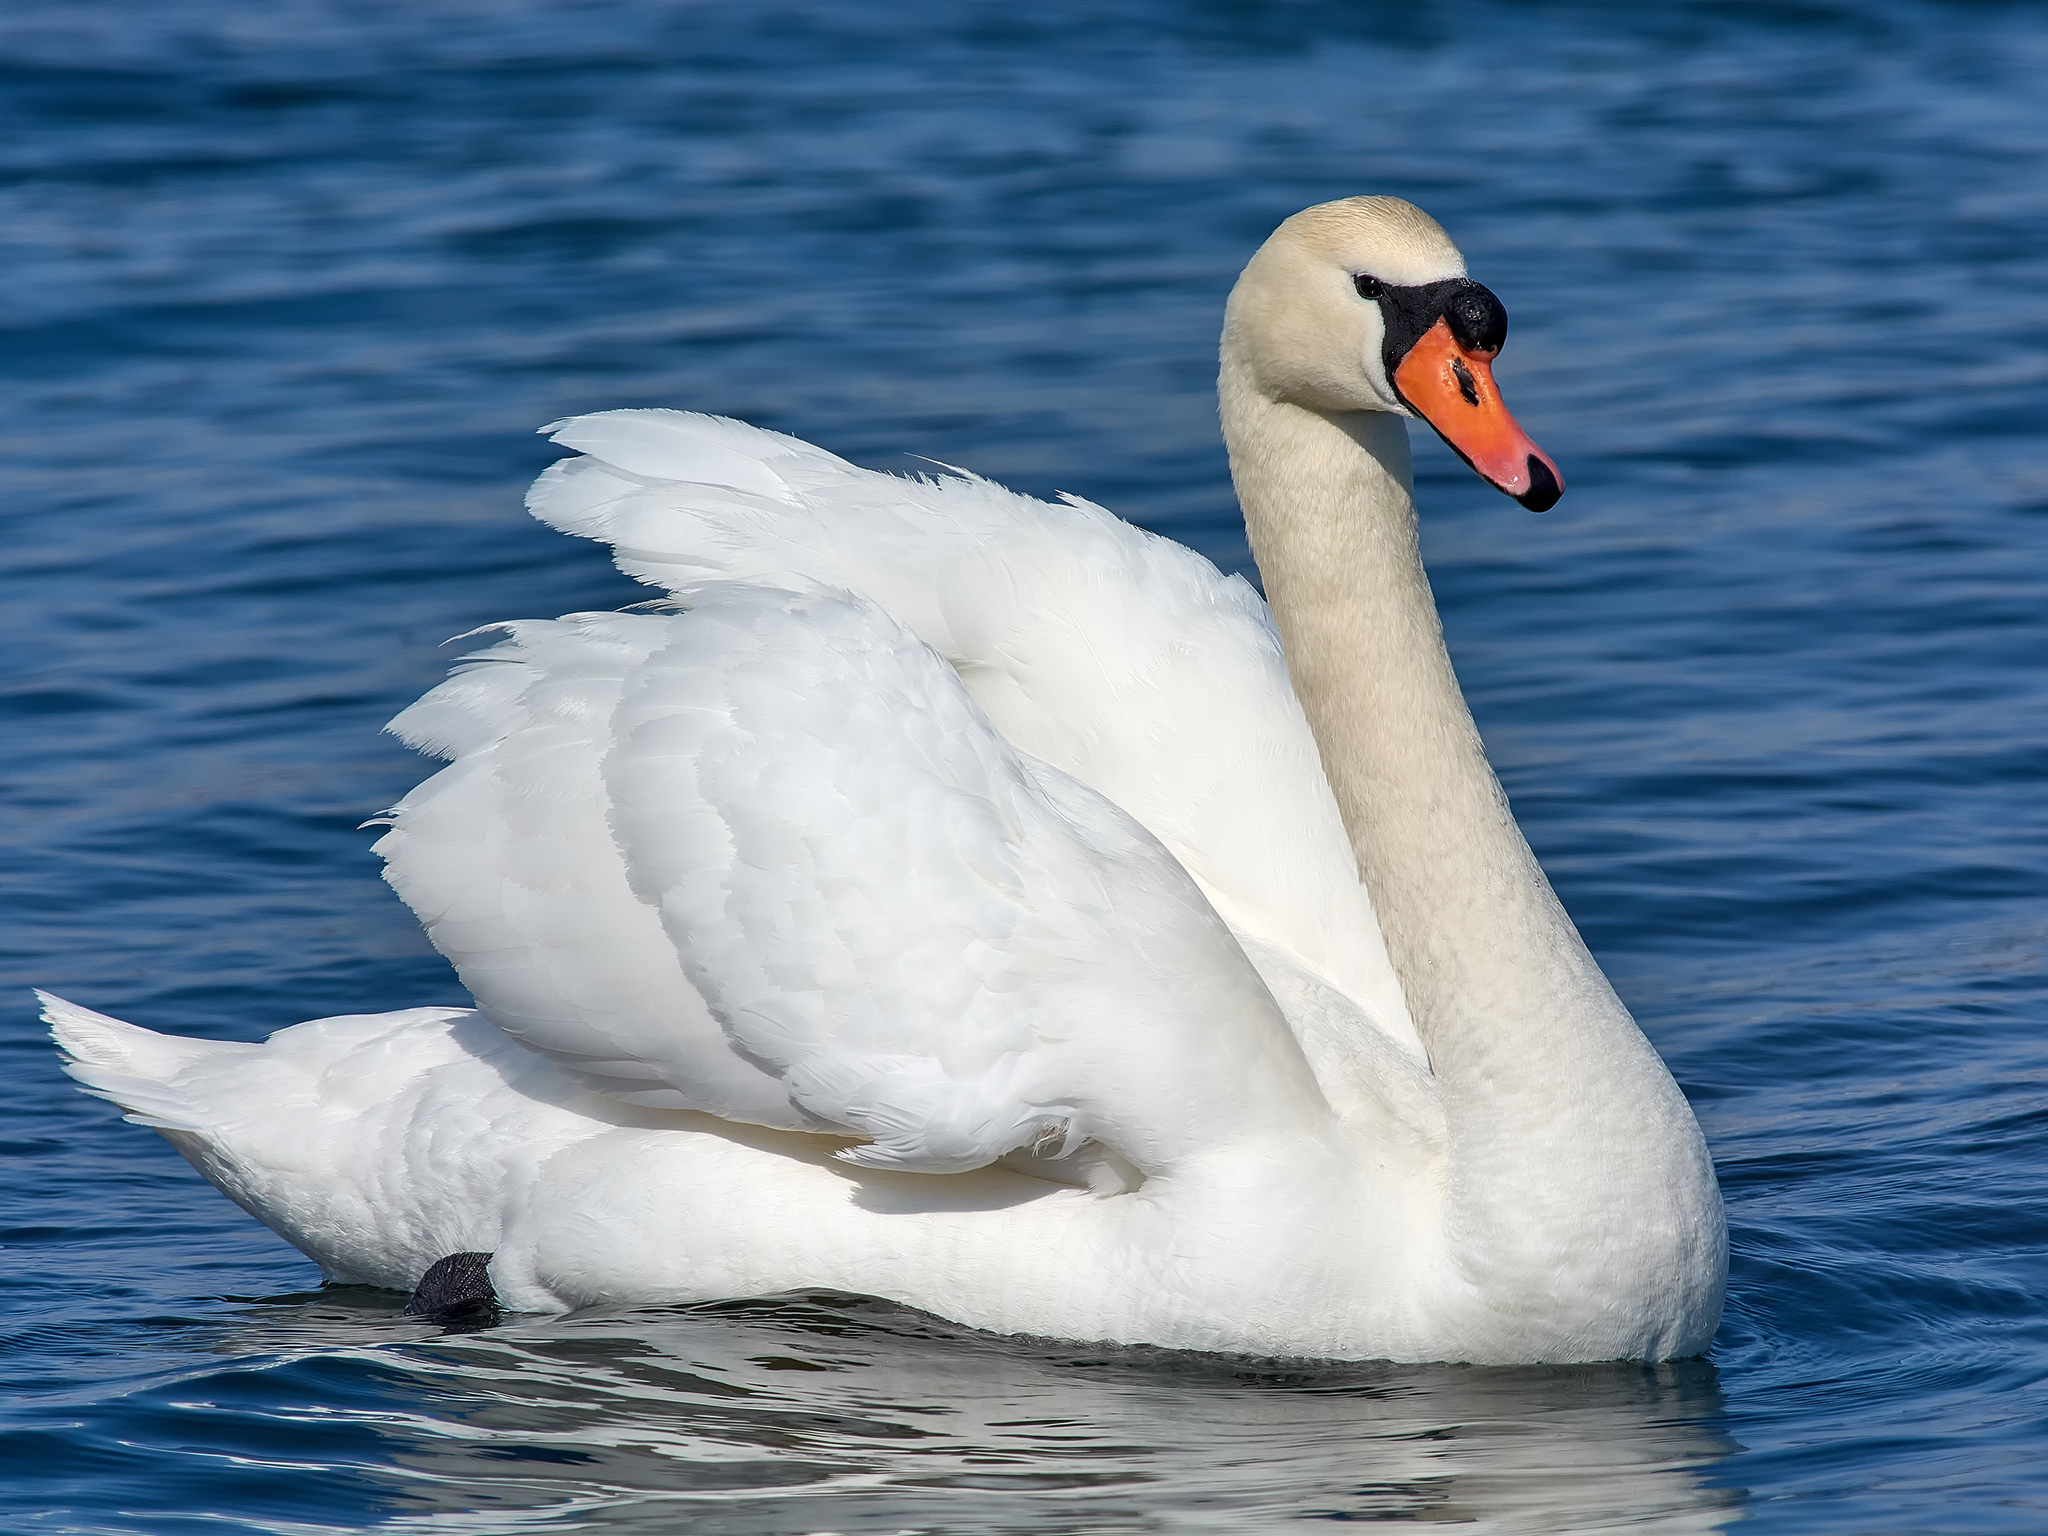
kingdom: Animalia
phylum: Chordata
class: Aves
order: Anseriformes
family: Anatidae
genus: Cygnus
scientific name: Cygnus olor
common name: Mute swan
